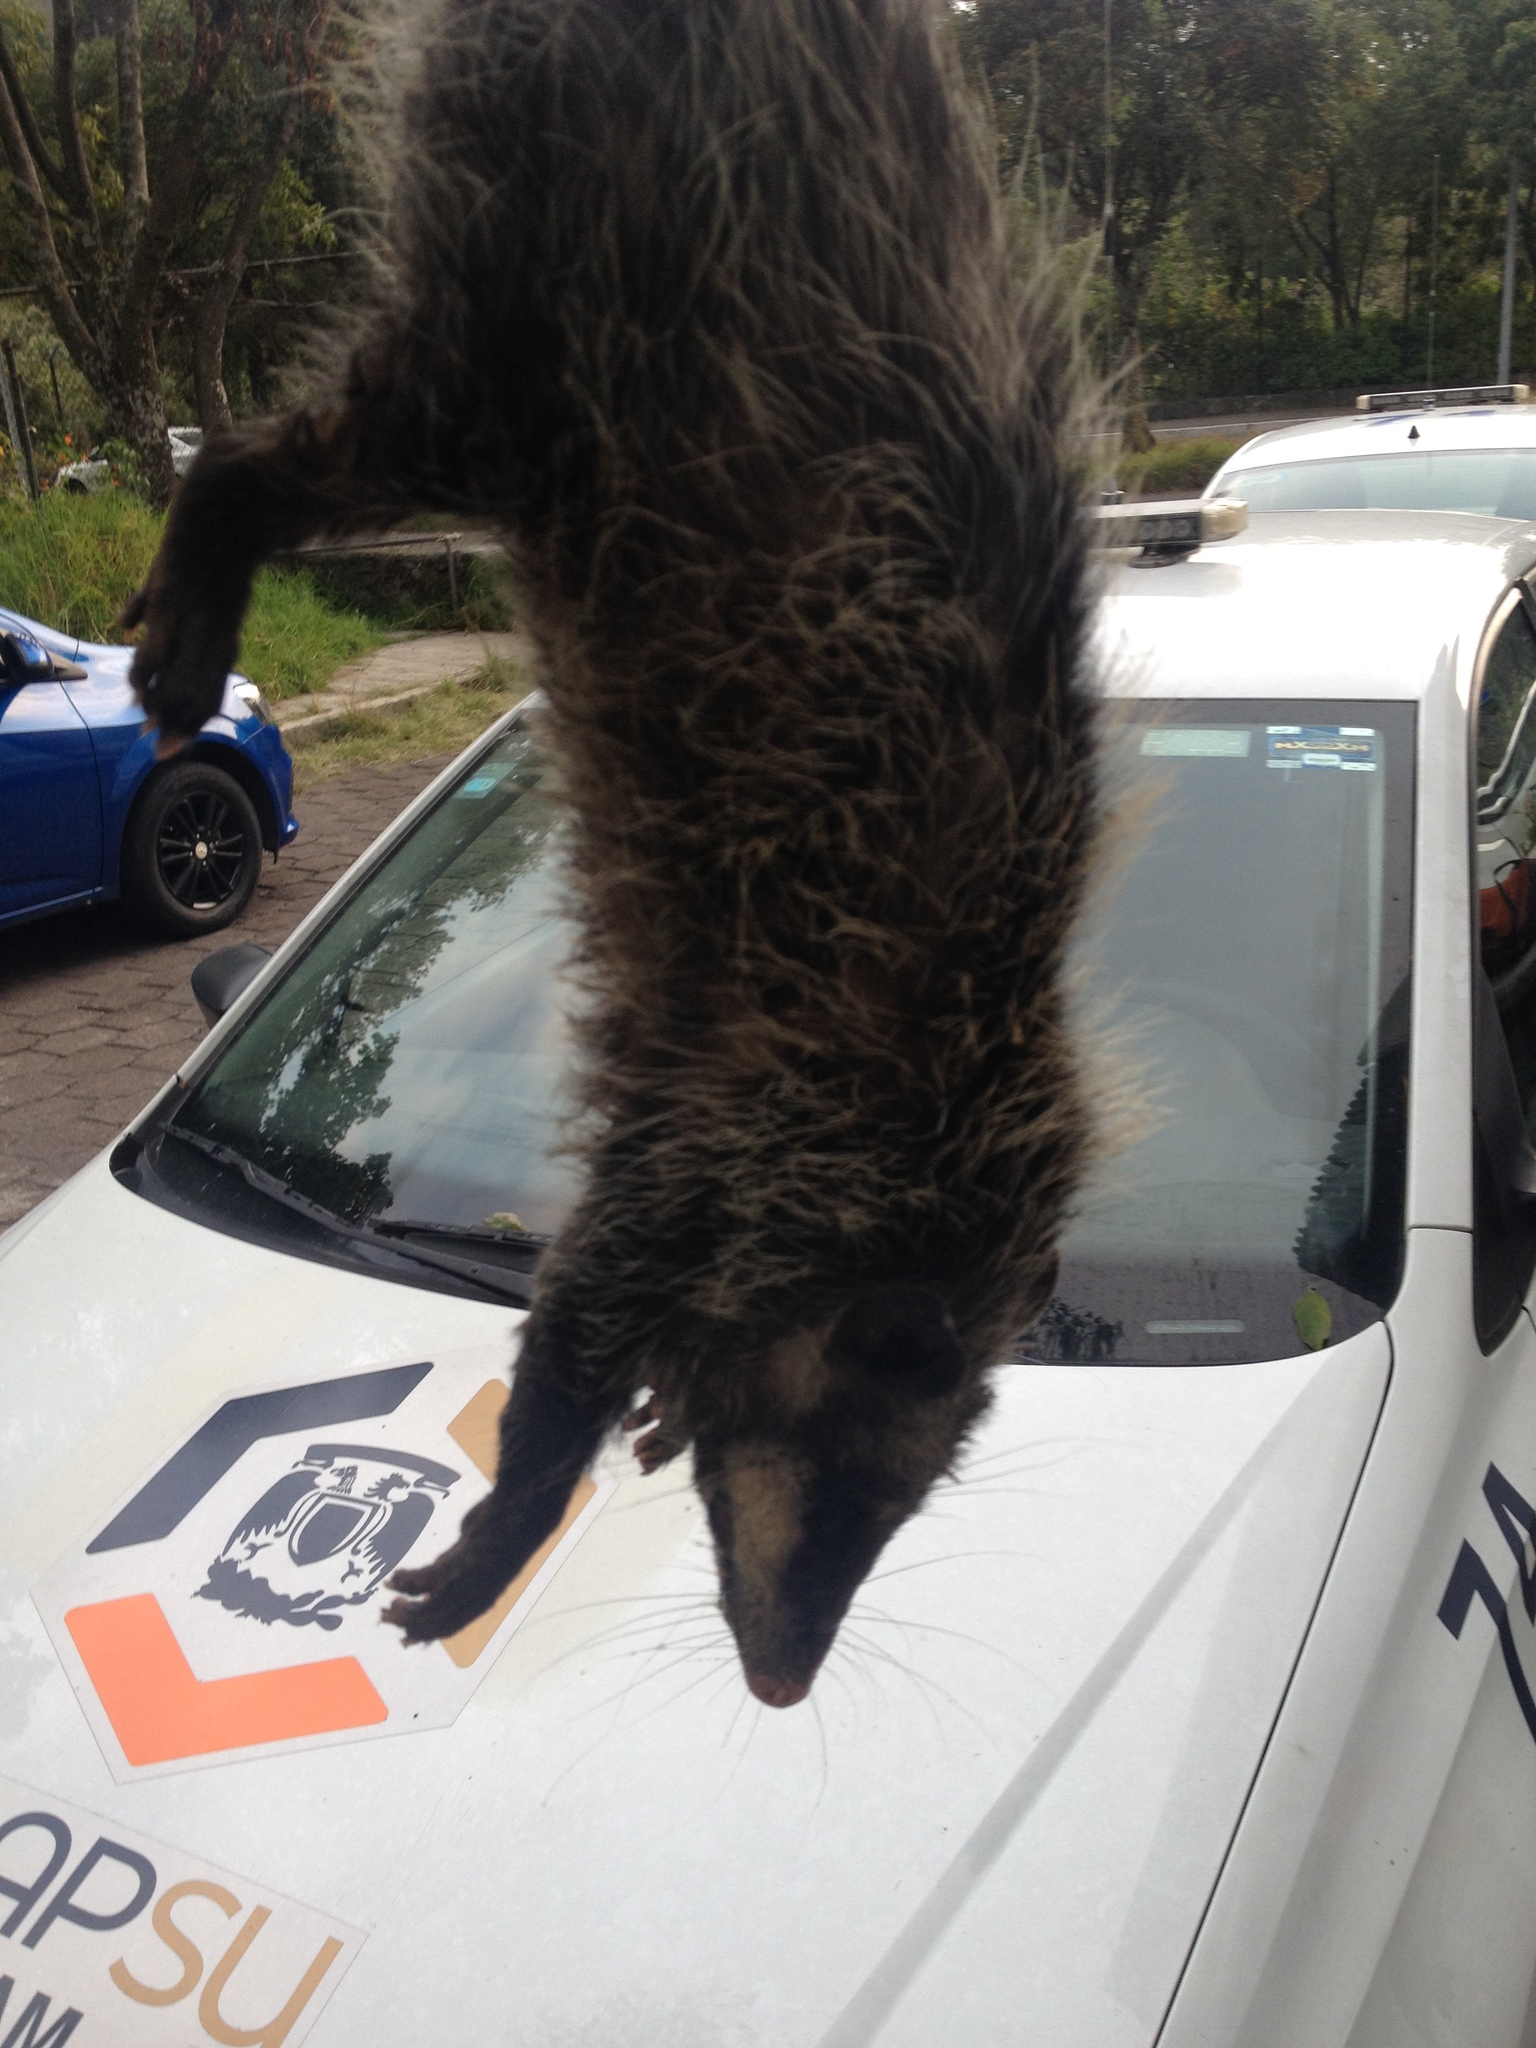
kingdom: Animalia
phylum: Chordata
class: Mammalia
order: Didelphimorphia
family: Didelphidae
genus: Didelphis
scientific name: Didelphis virginiana
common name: Virginia opossum
